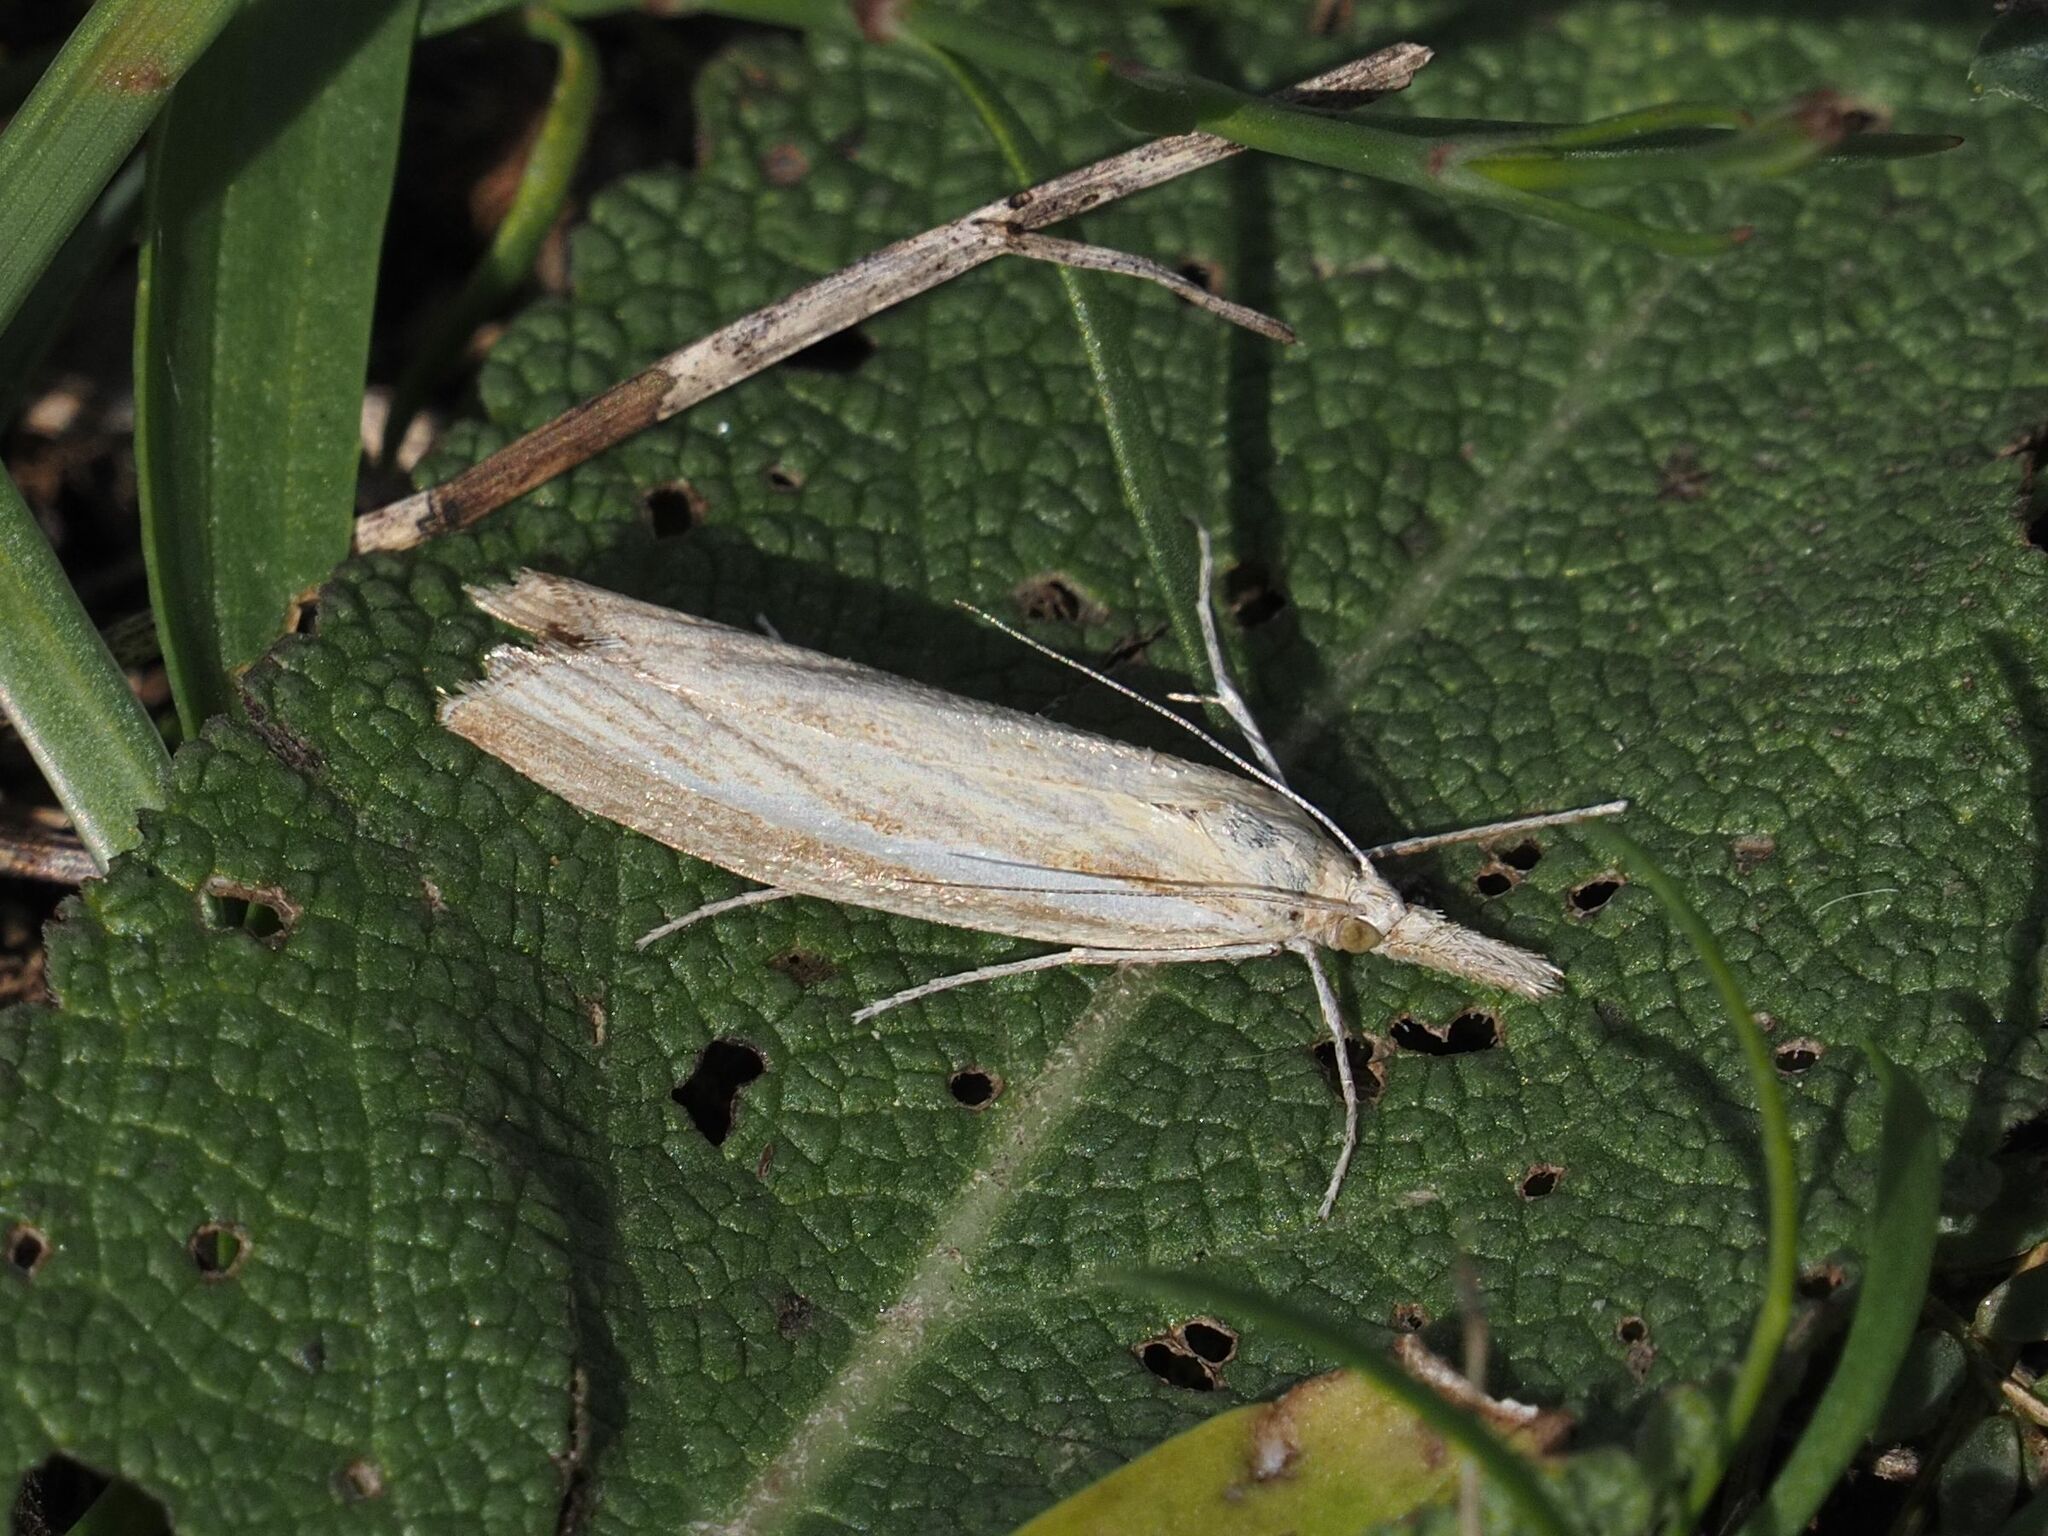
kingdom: Animalia
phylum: Arthropoda
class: Insecta
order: Lepidoptera
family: Crambidae
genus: Agriphila
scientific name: Agriphila tristellus
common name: Common grass-veneer
